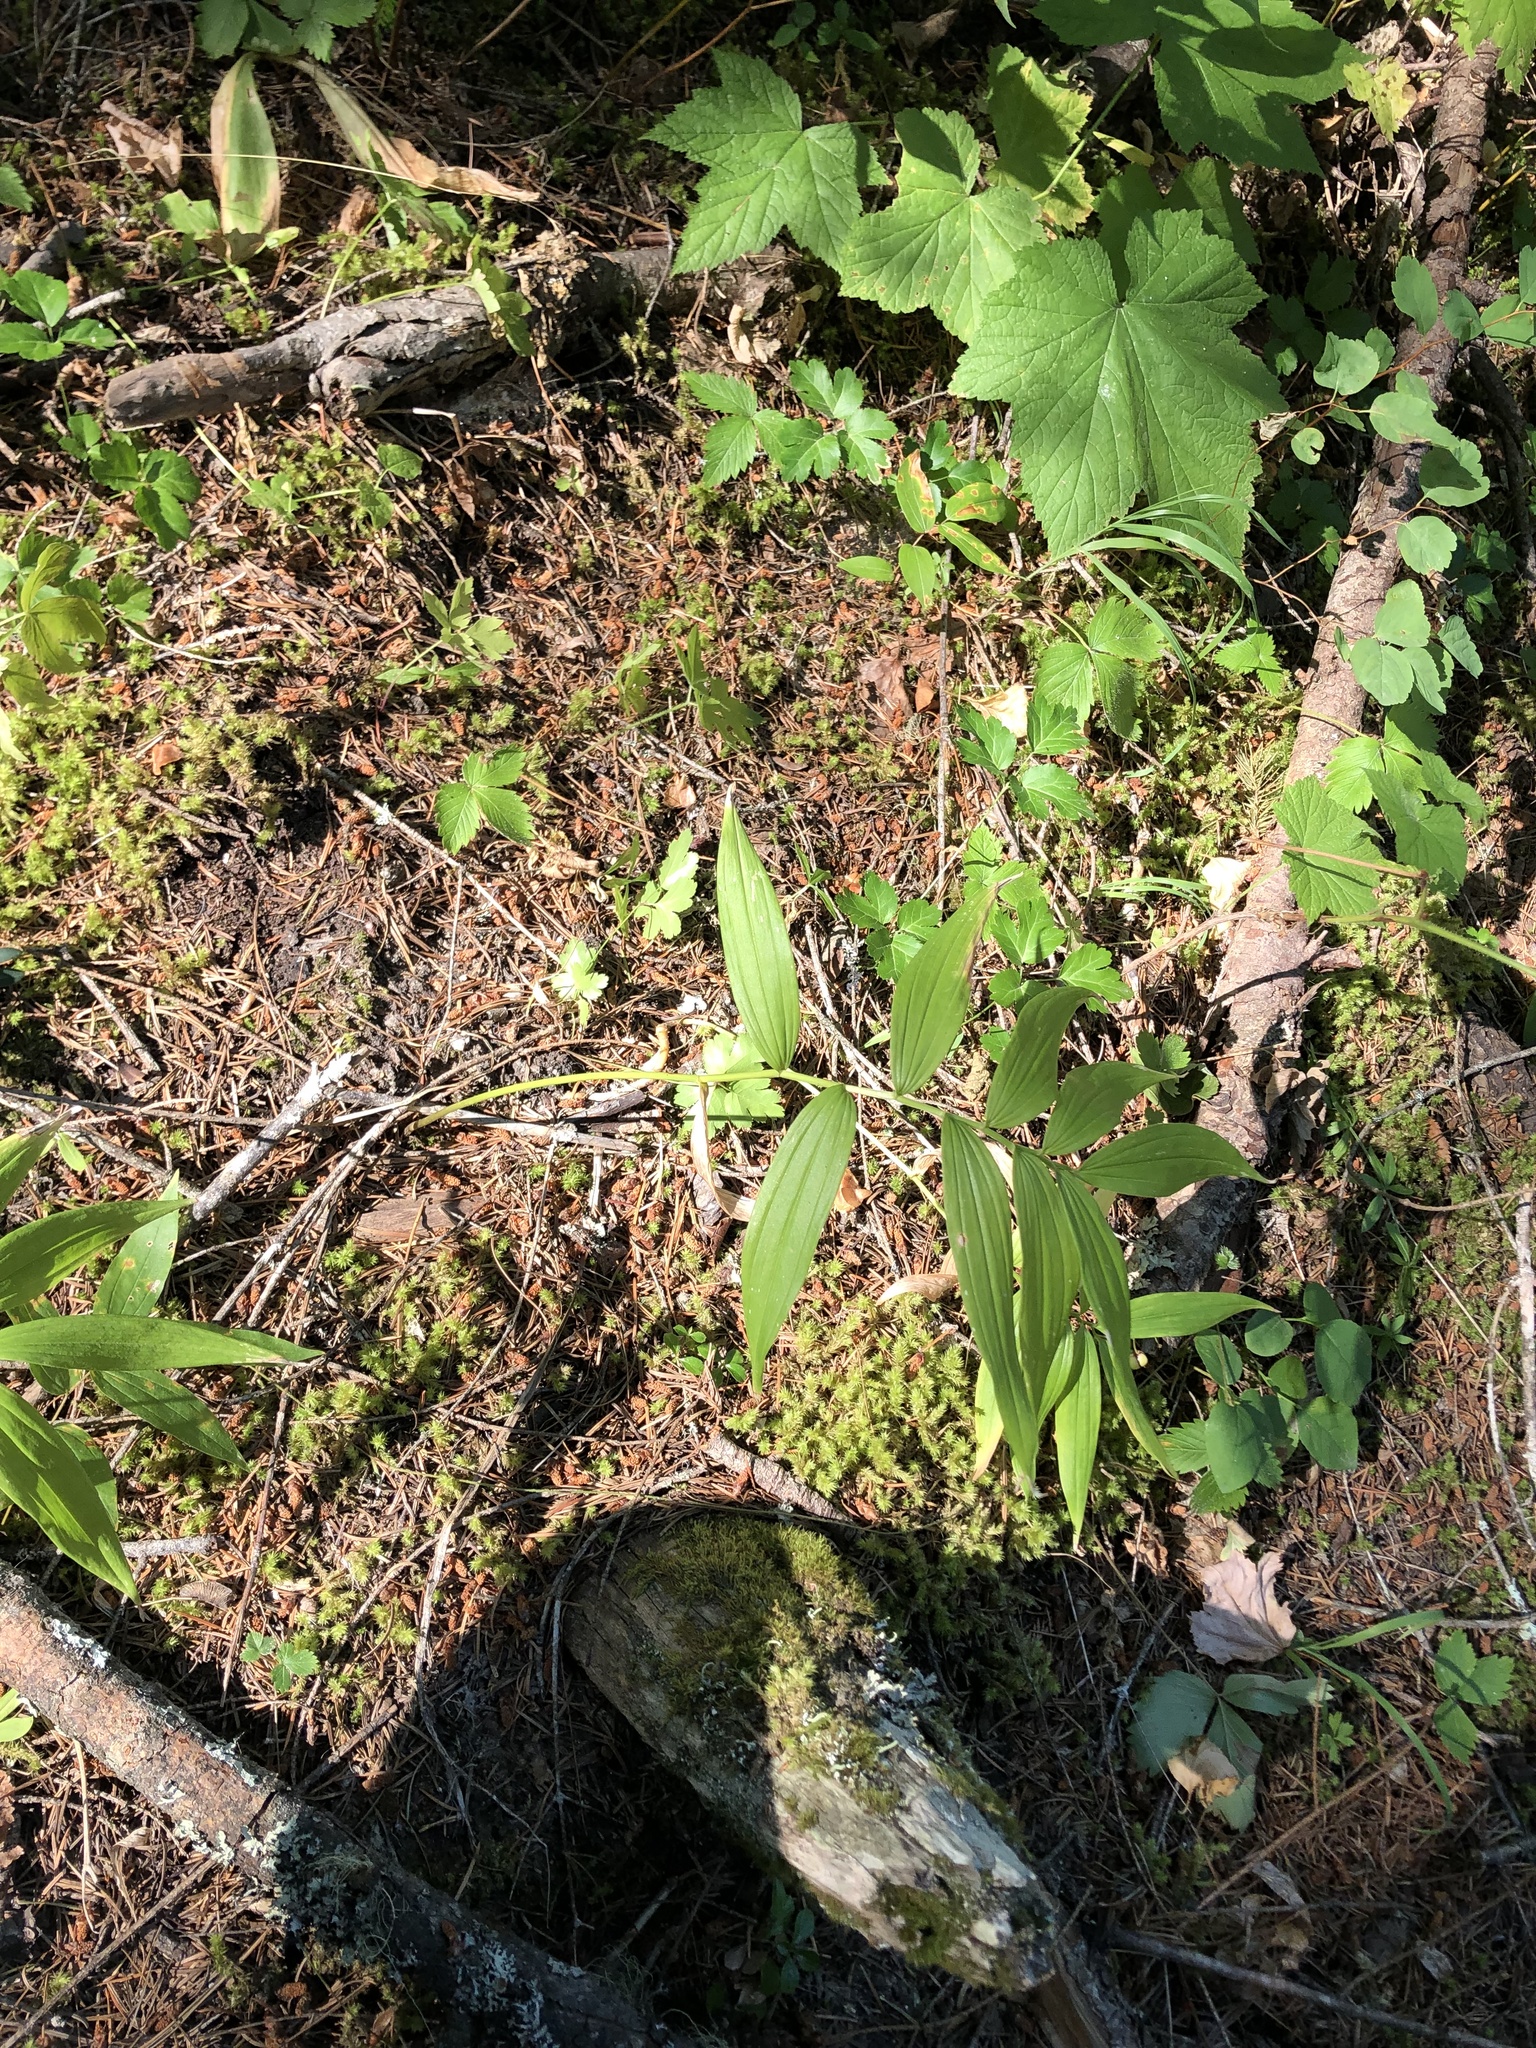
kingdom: Plantae
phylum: Tracheophyta
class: Liliopsida
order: Asparagales
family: Asparagaceae
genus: Maianthemum
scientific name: Maianthemum stellatum
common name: Little false solomon's seal
